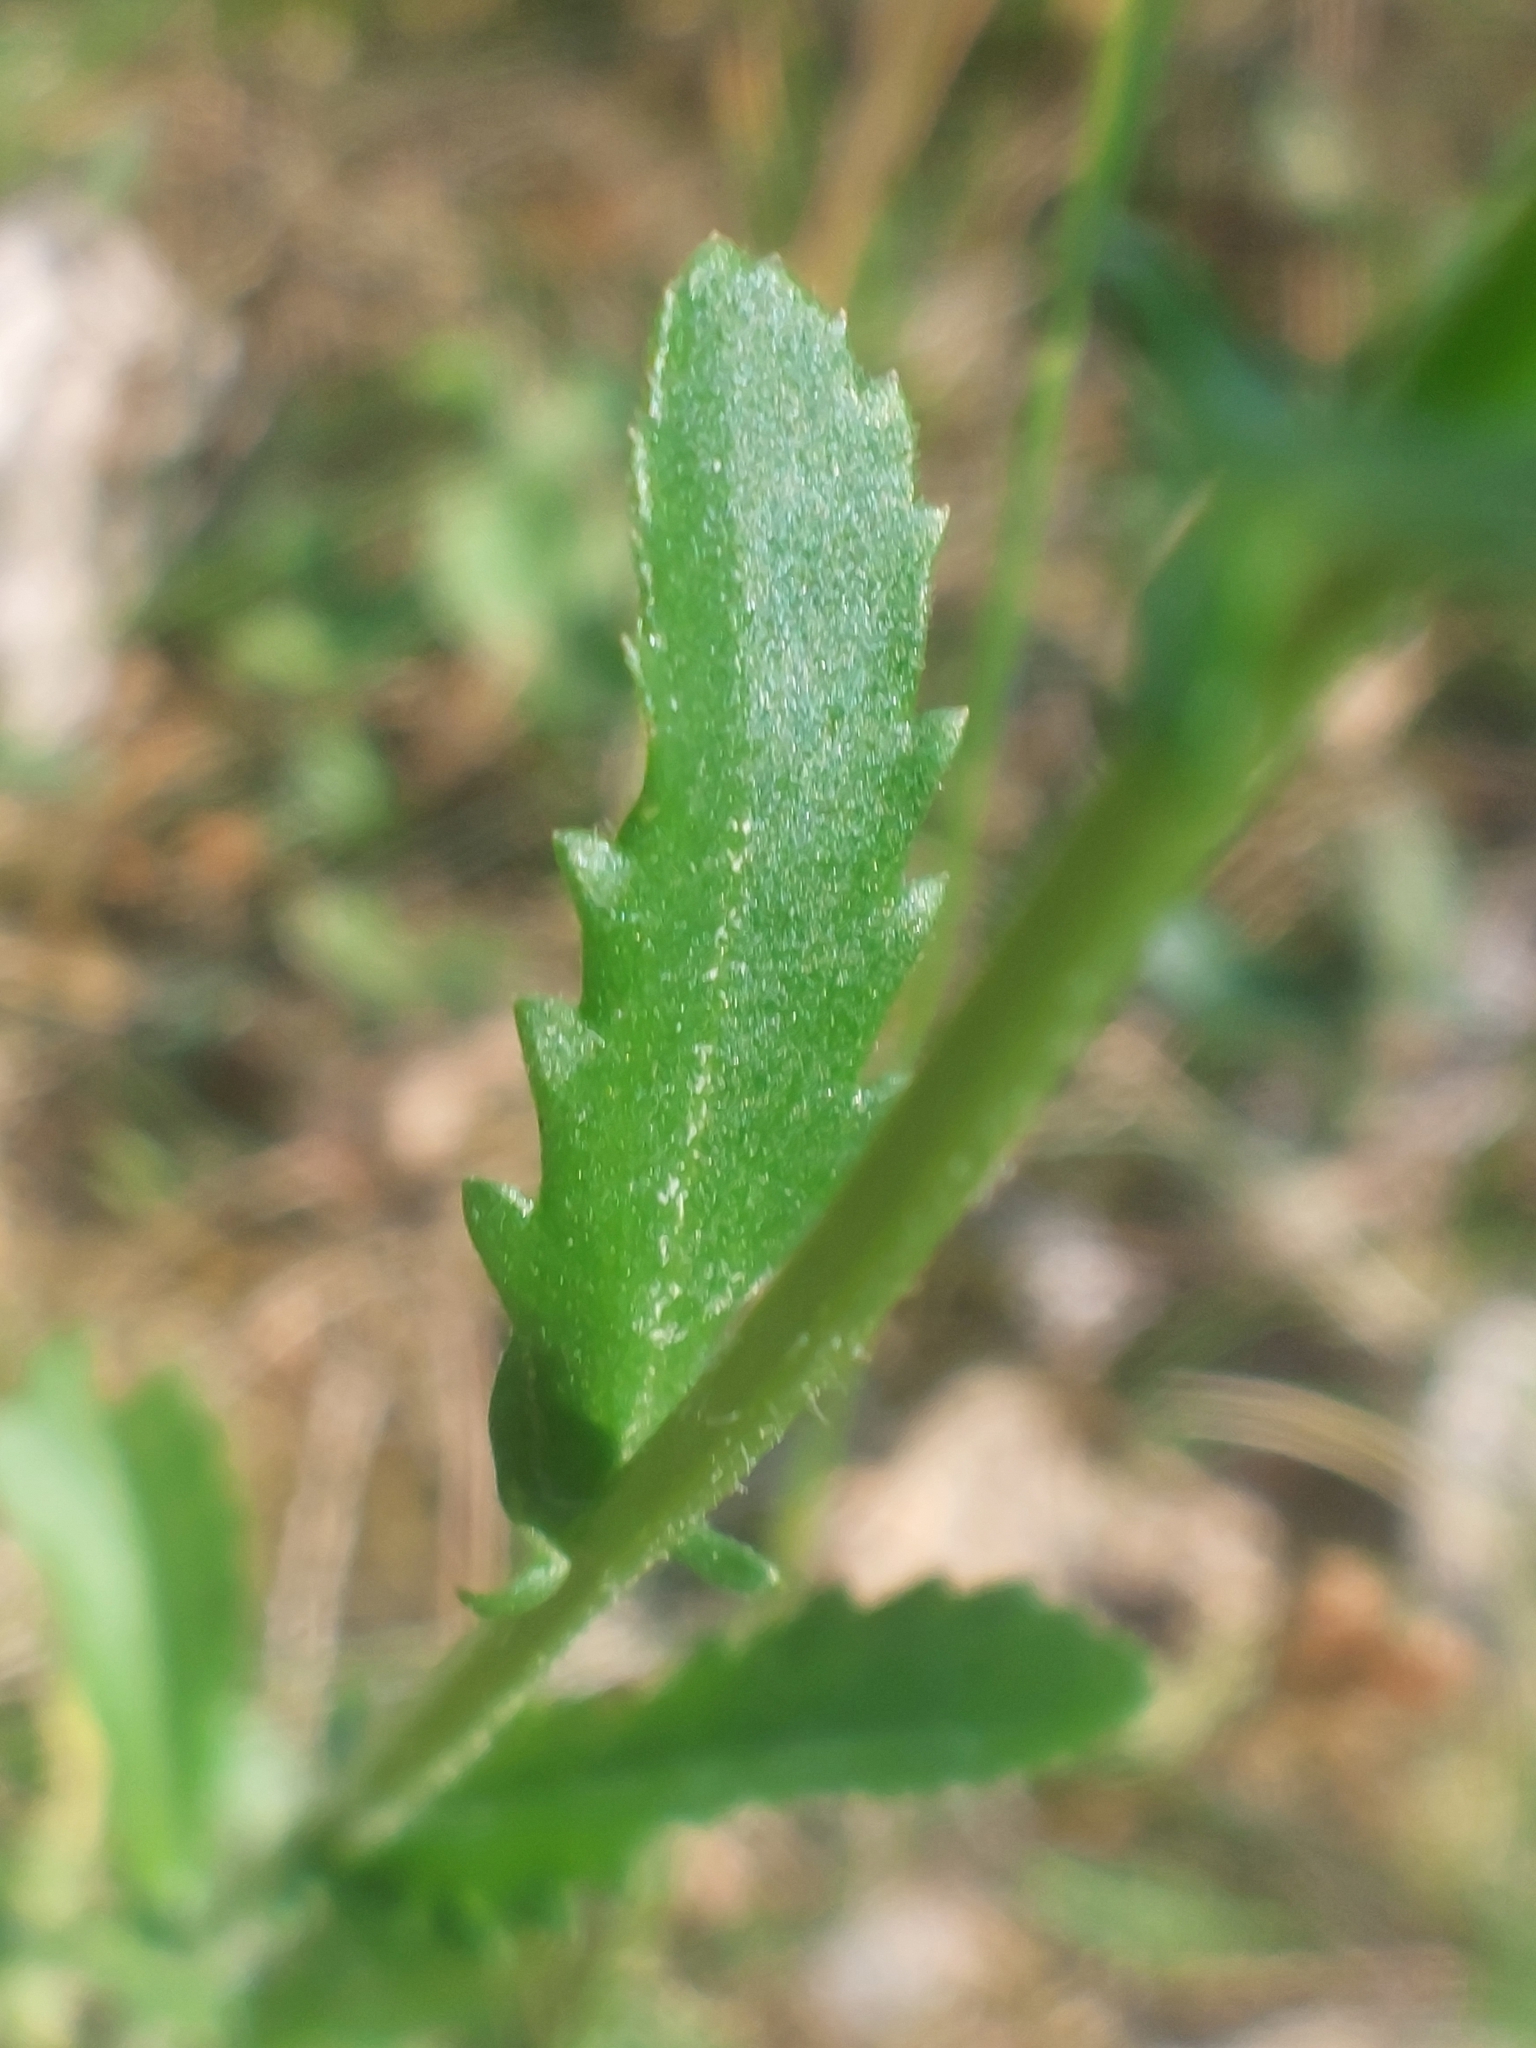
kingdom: Plantae
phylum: Tracheophyta
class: Magnoliopsida
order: Asterales
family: Asteraceae
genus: Leucanthemum
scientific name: Leucanthemum vulgare
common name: Oxeye daisy
